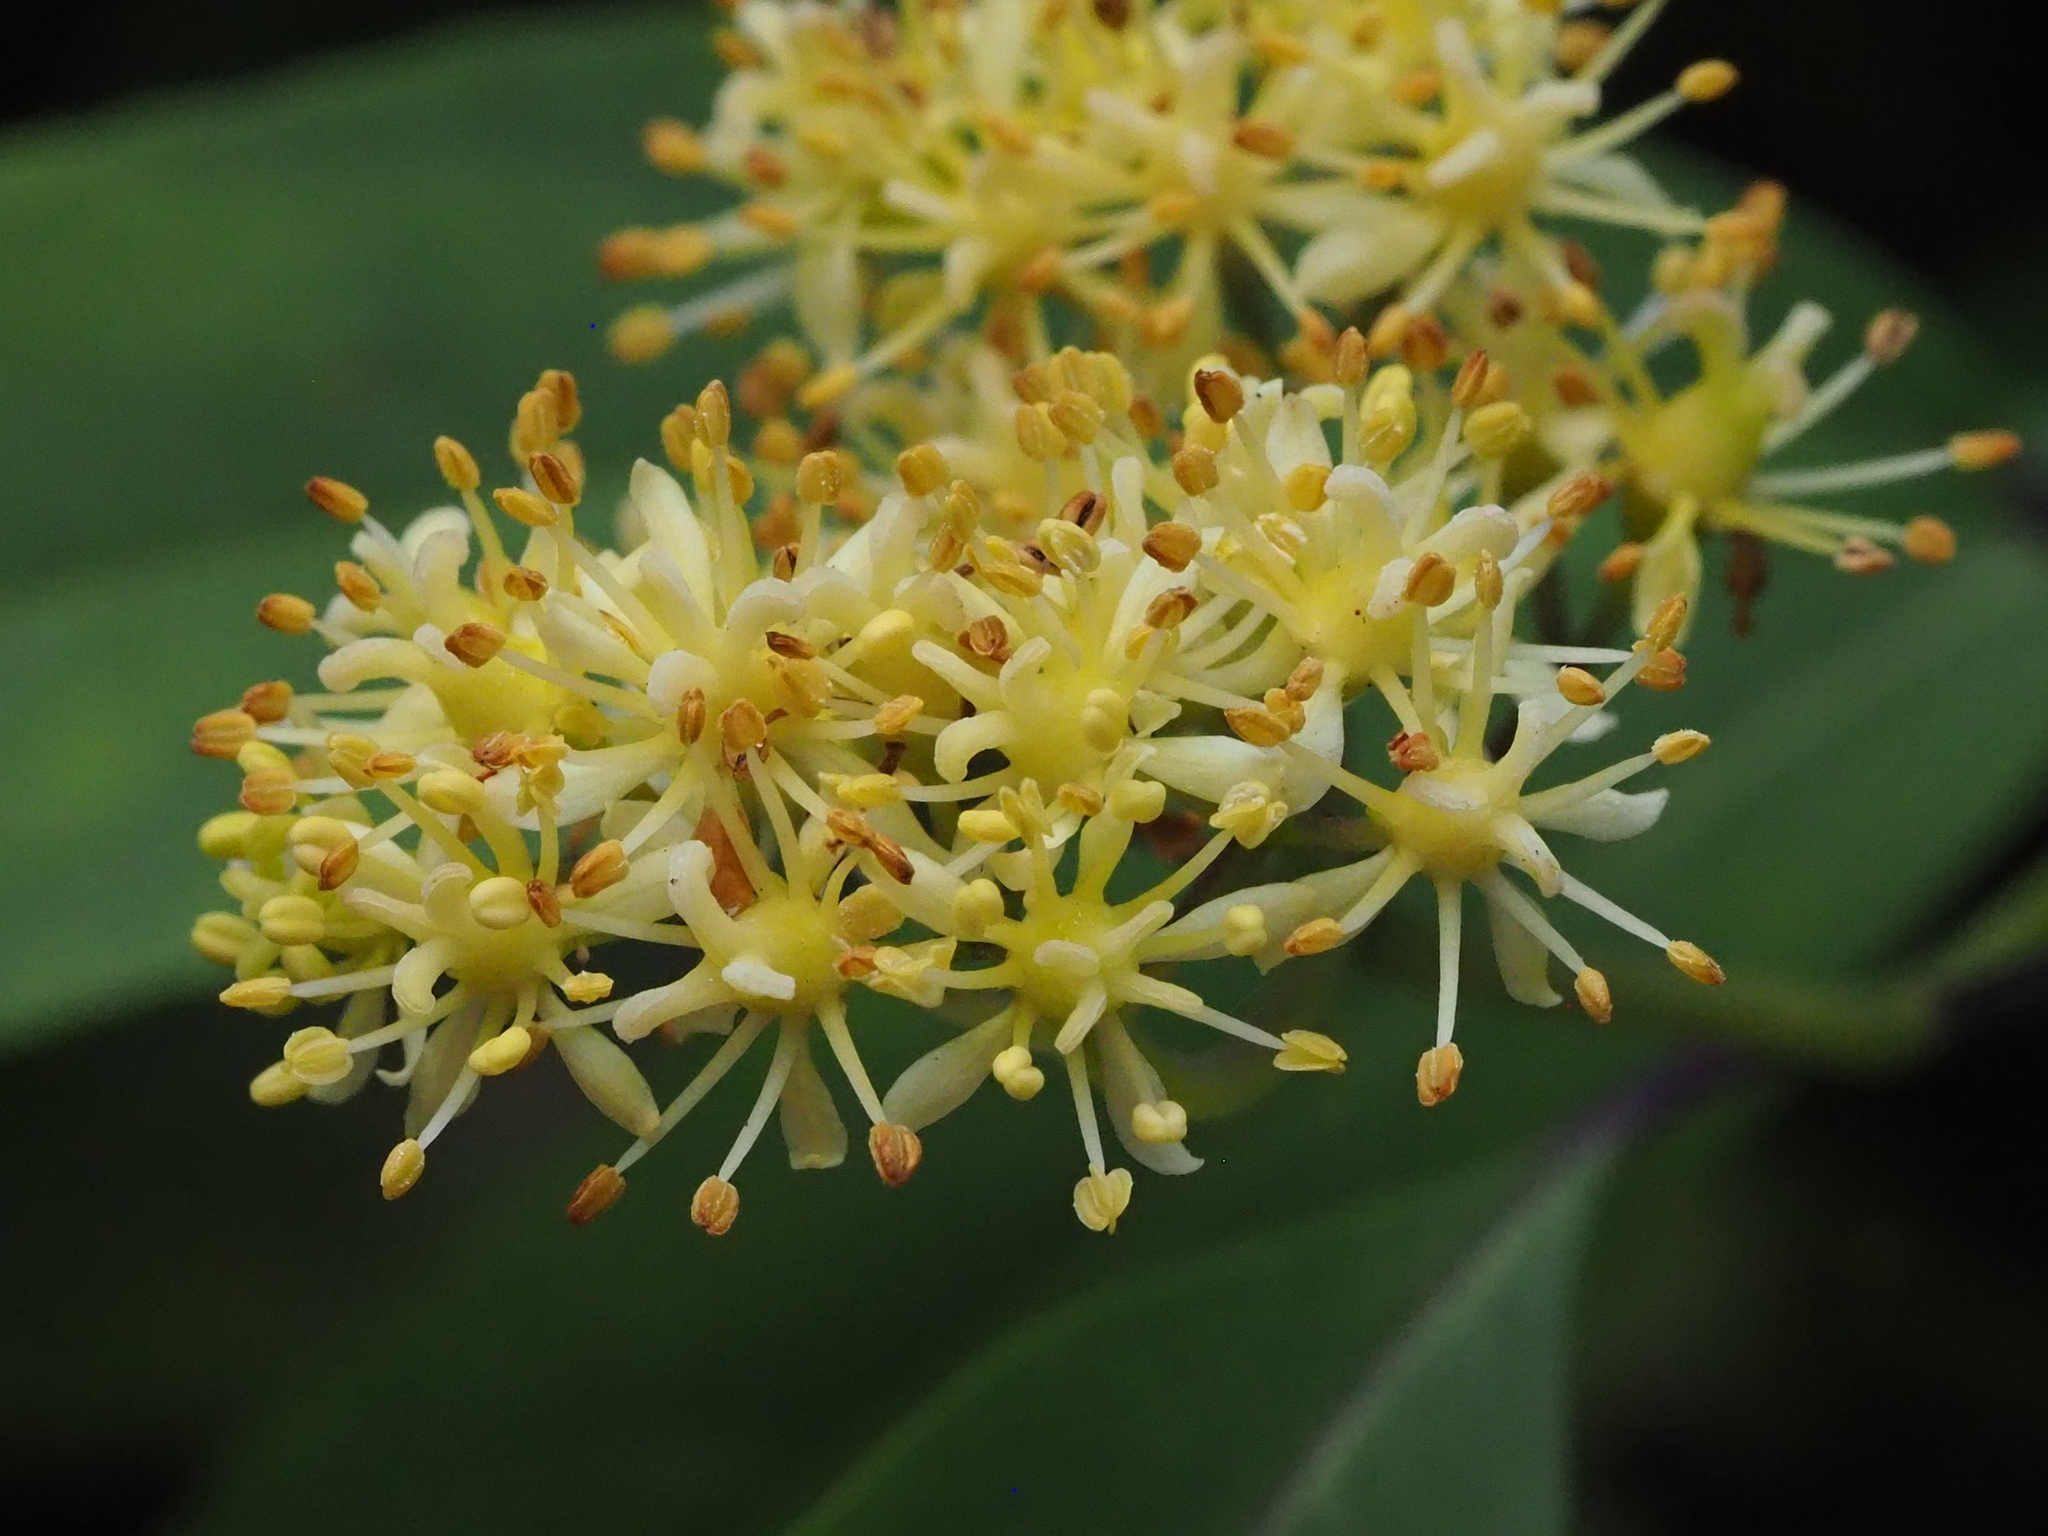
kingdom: Plantae
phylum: Tracheophyta
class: Magnoliopsida
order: Cornales
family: Hydrangeaceae
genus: Hydrangea
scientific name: Hydrangea chinensis
